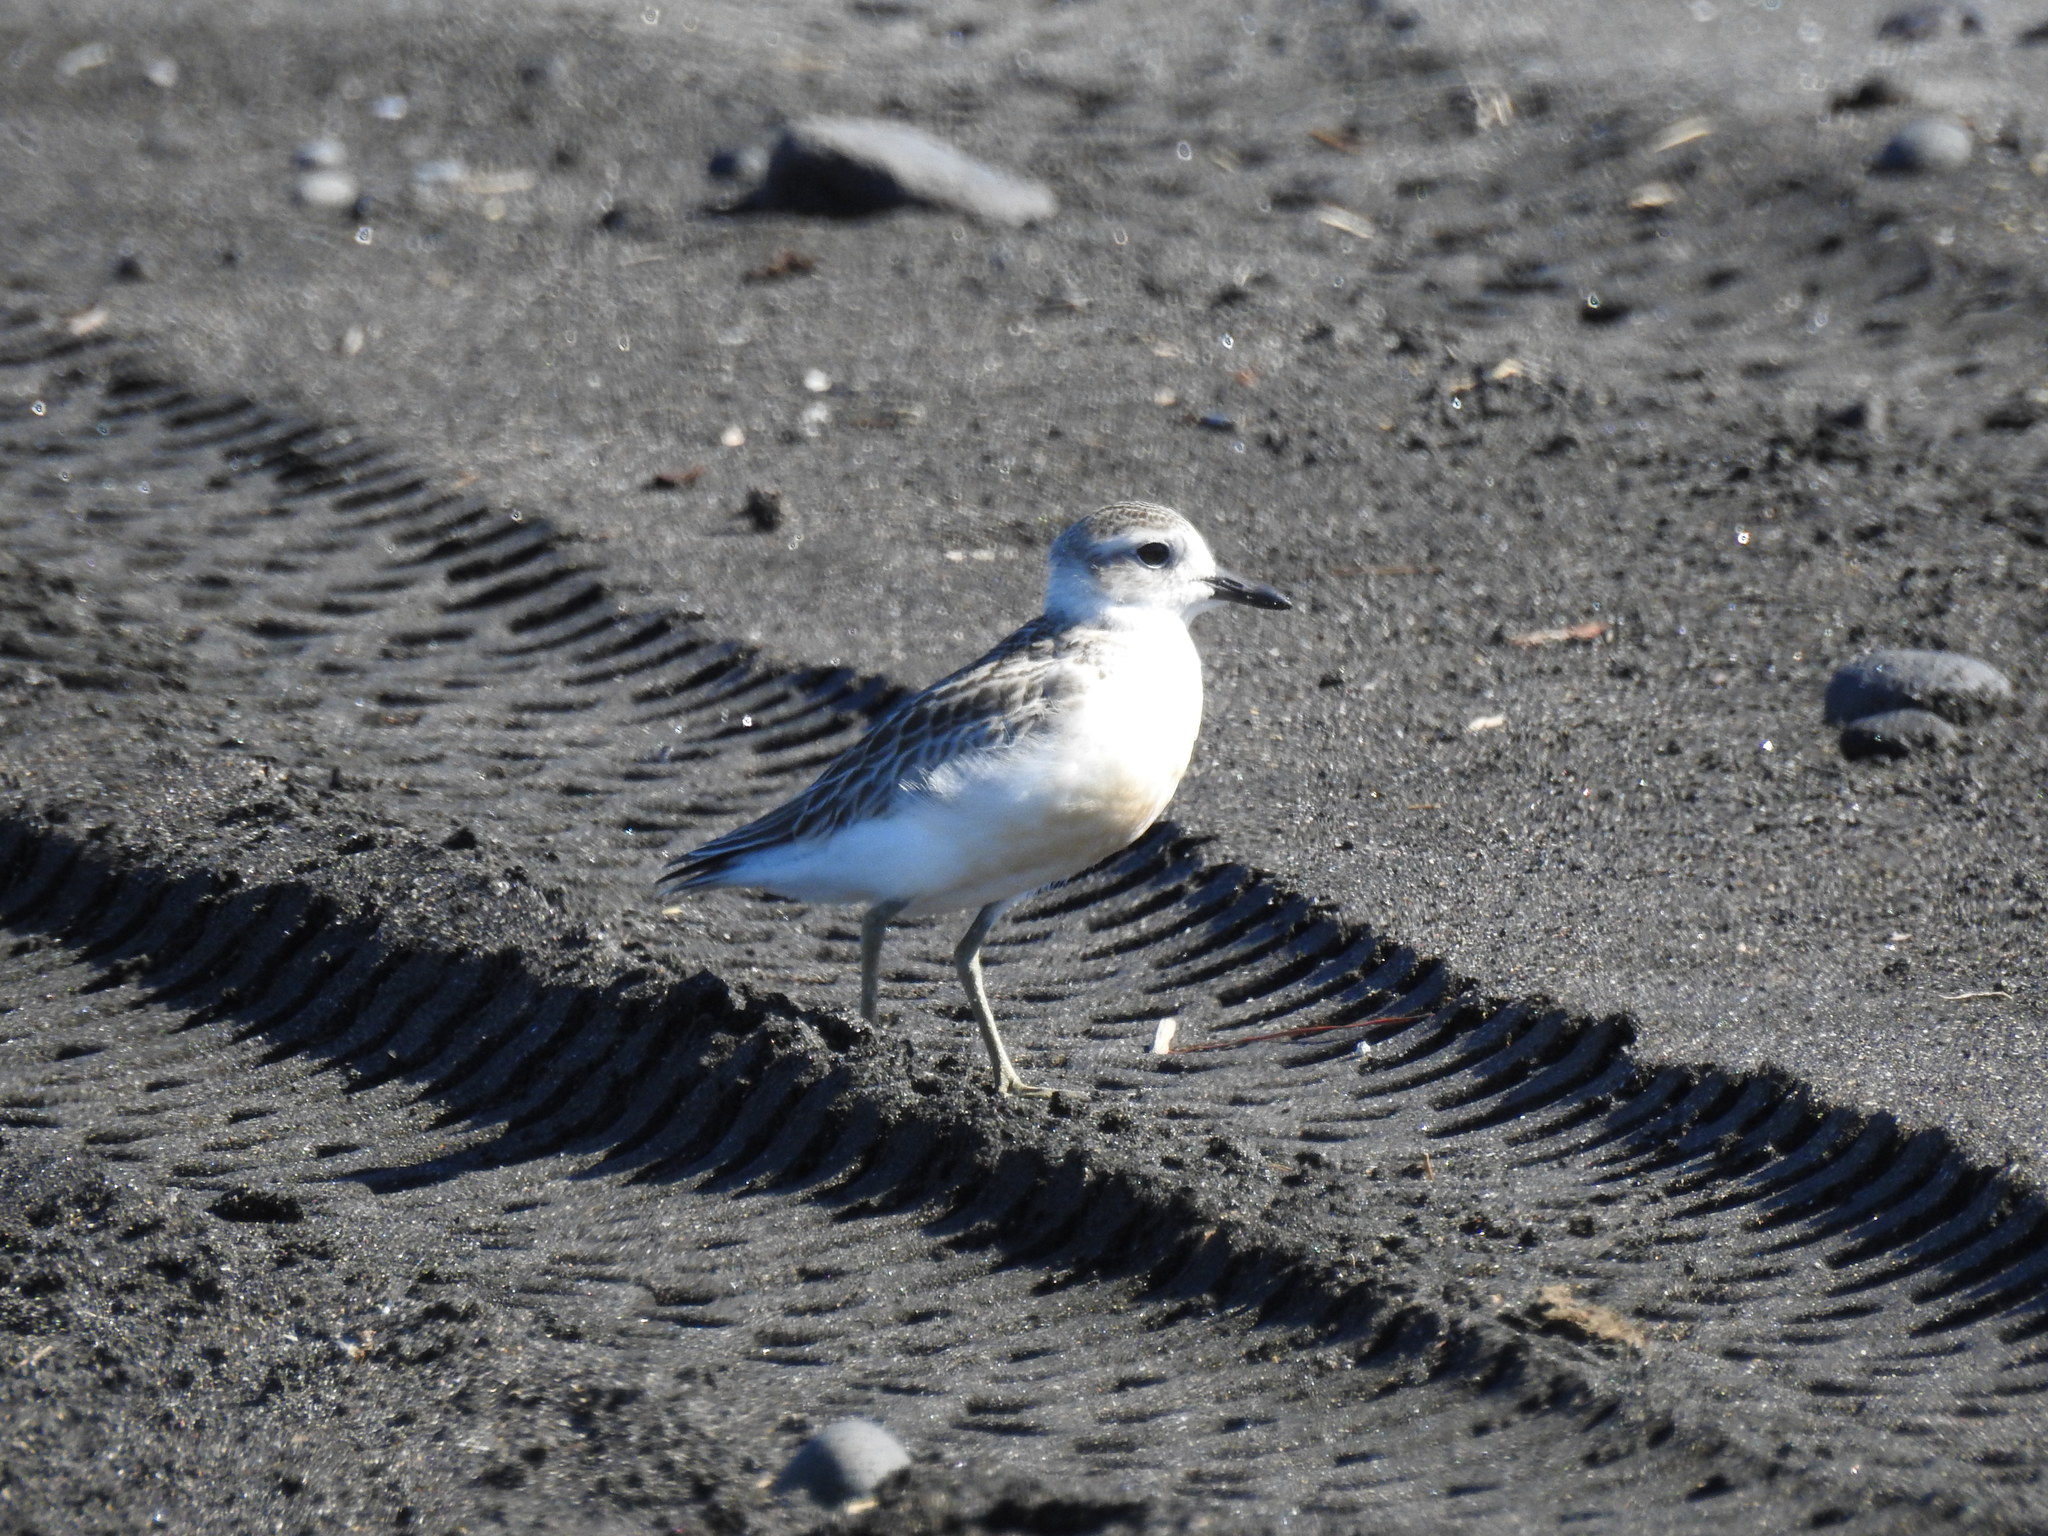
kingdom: Animalia
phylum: Chordata
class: Aves
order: Charadriiformes
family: Charadriidae
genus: Anarhynchus
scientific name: Anarhynchus
